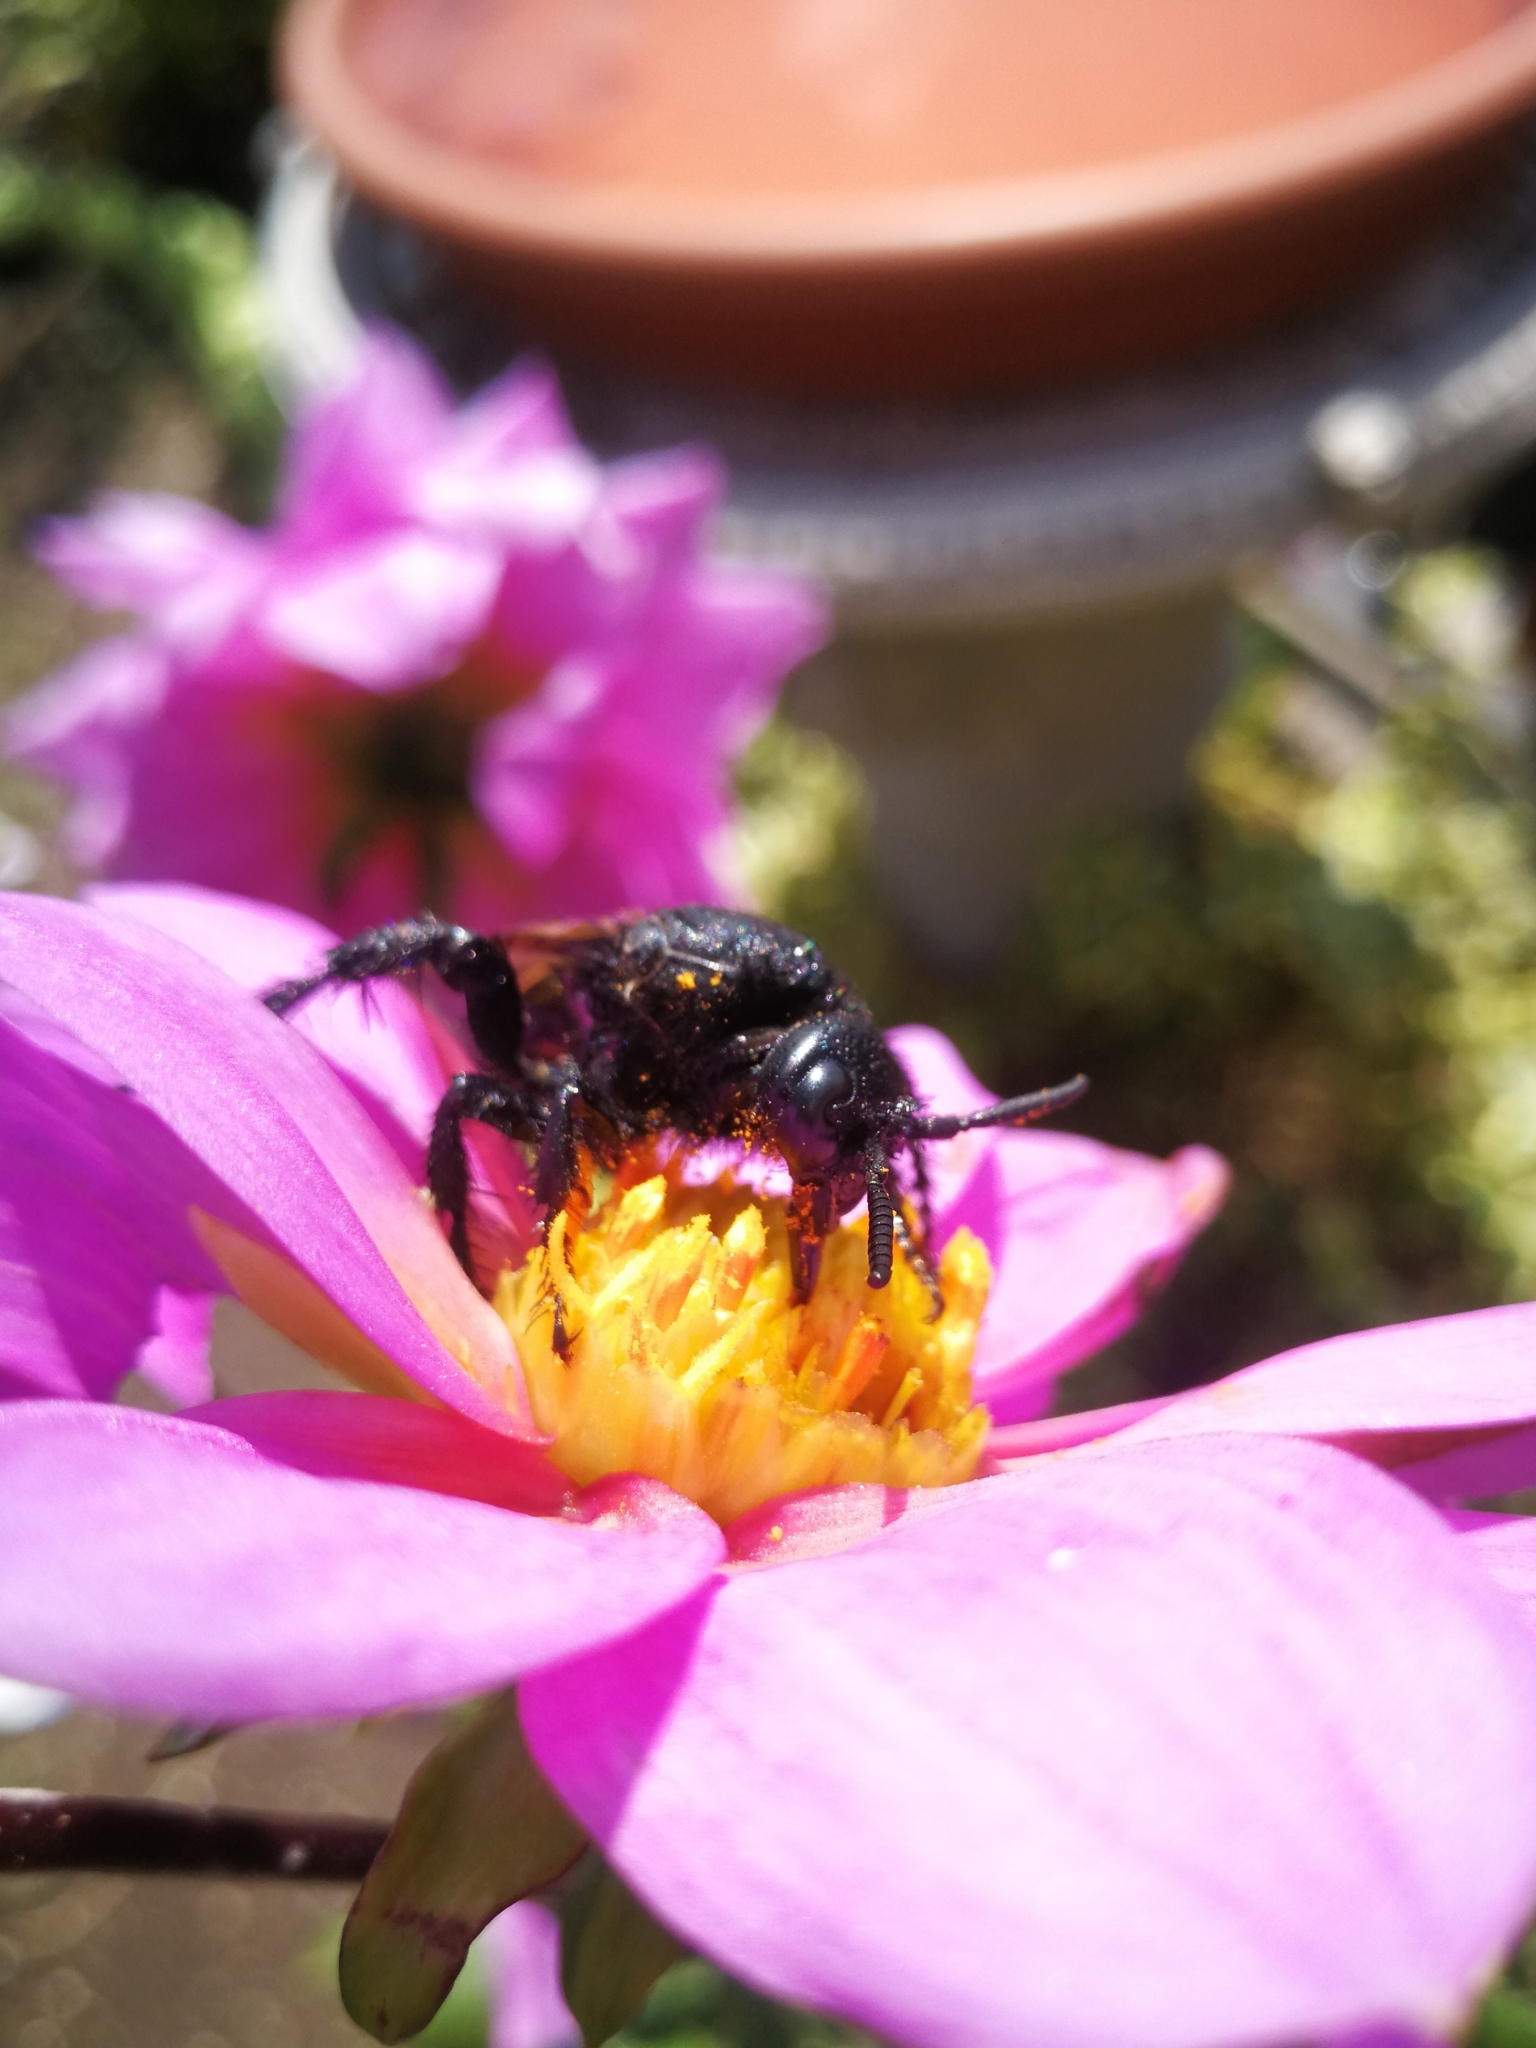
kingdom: Animalia
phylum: Arthropoda
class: Insecta
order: Hymenoptera
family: Scoliidae
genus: Pygodasis
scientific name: Pygodasis ephippium
